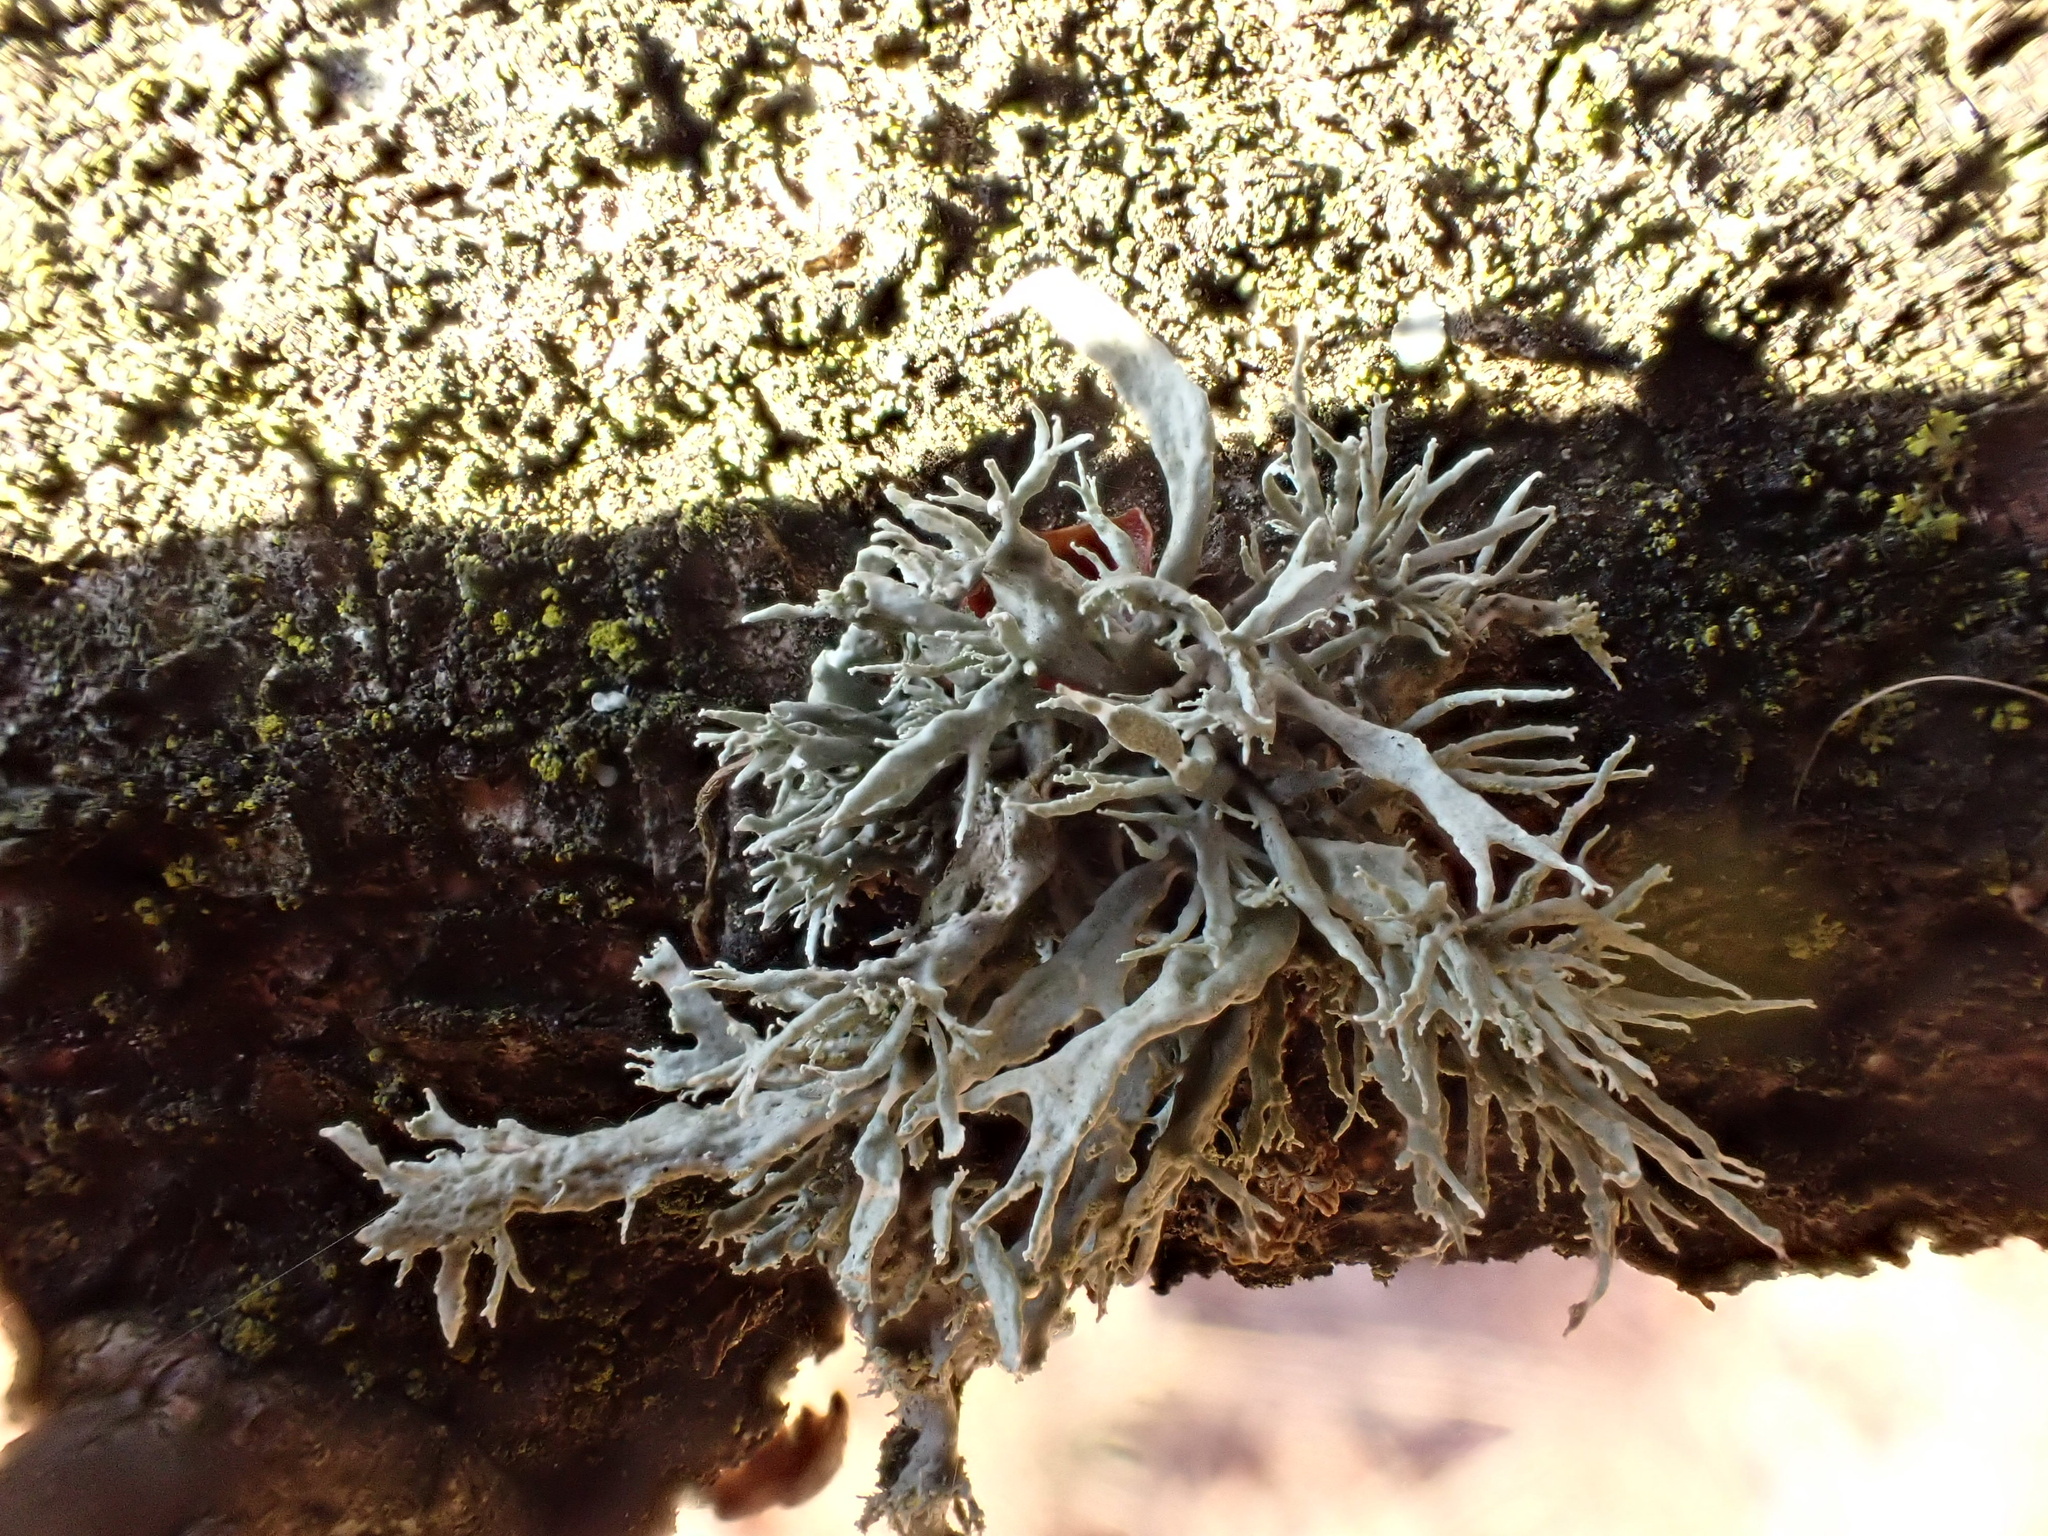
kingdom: Fungi
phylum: Ascomycota
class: Lecanoromycetes
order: Lecanorales
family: Ramalinaceae
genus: Ramalina
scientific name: Ramalina farinacea
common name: Farinose cartilage lichen
